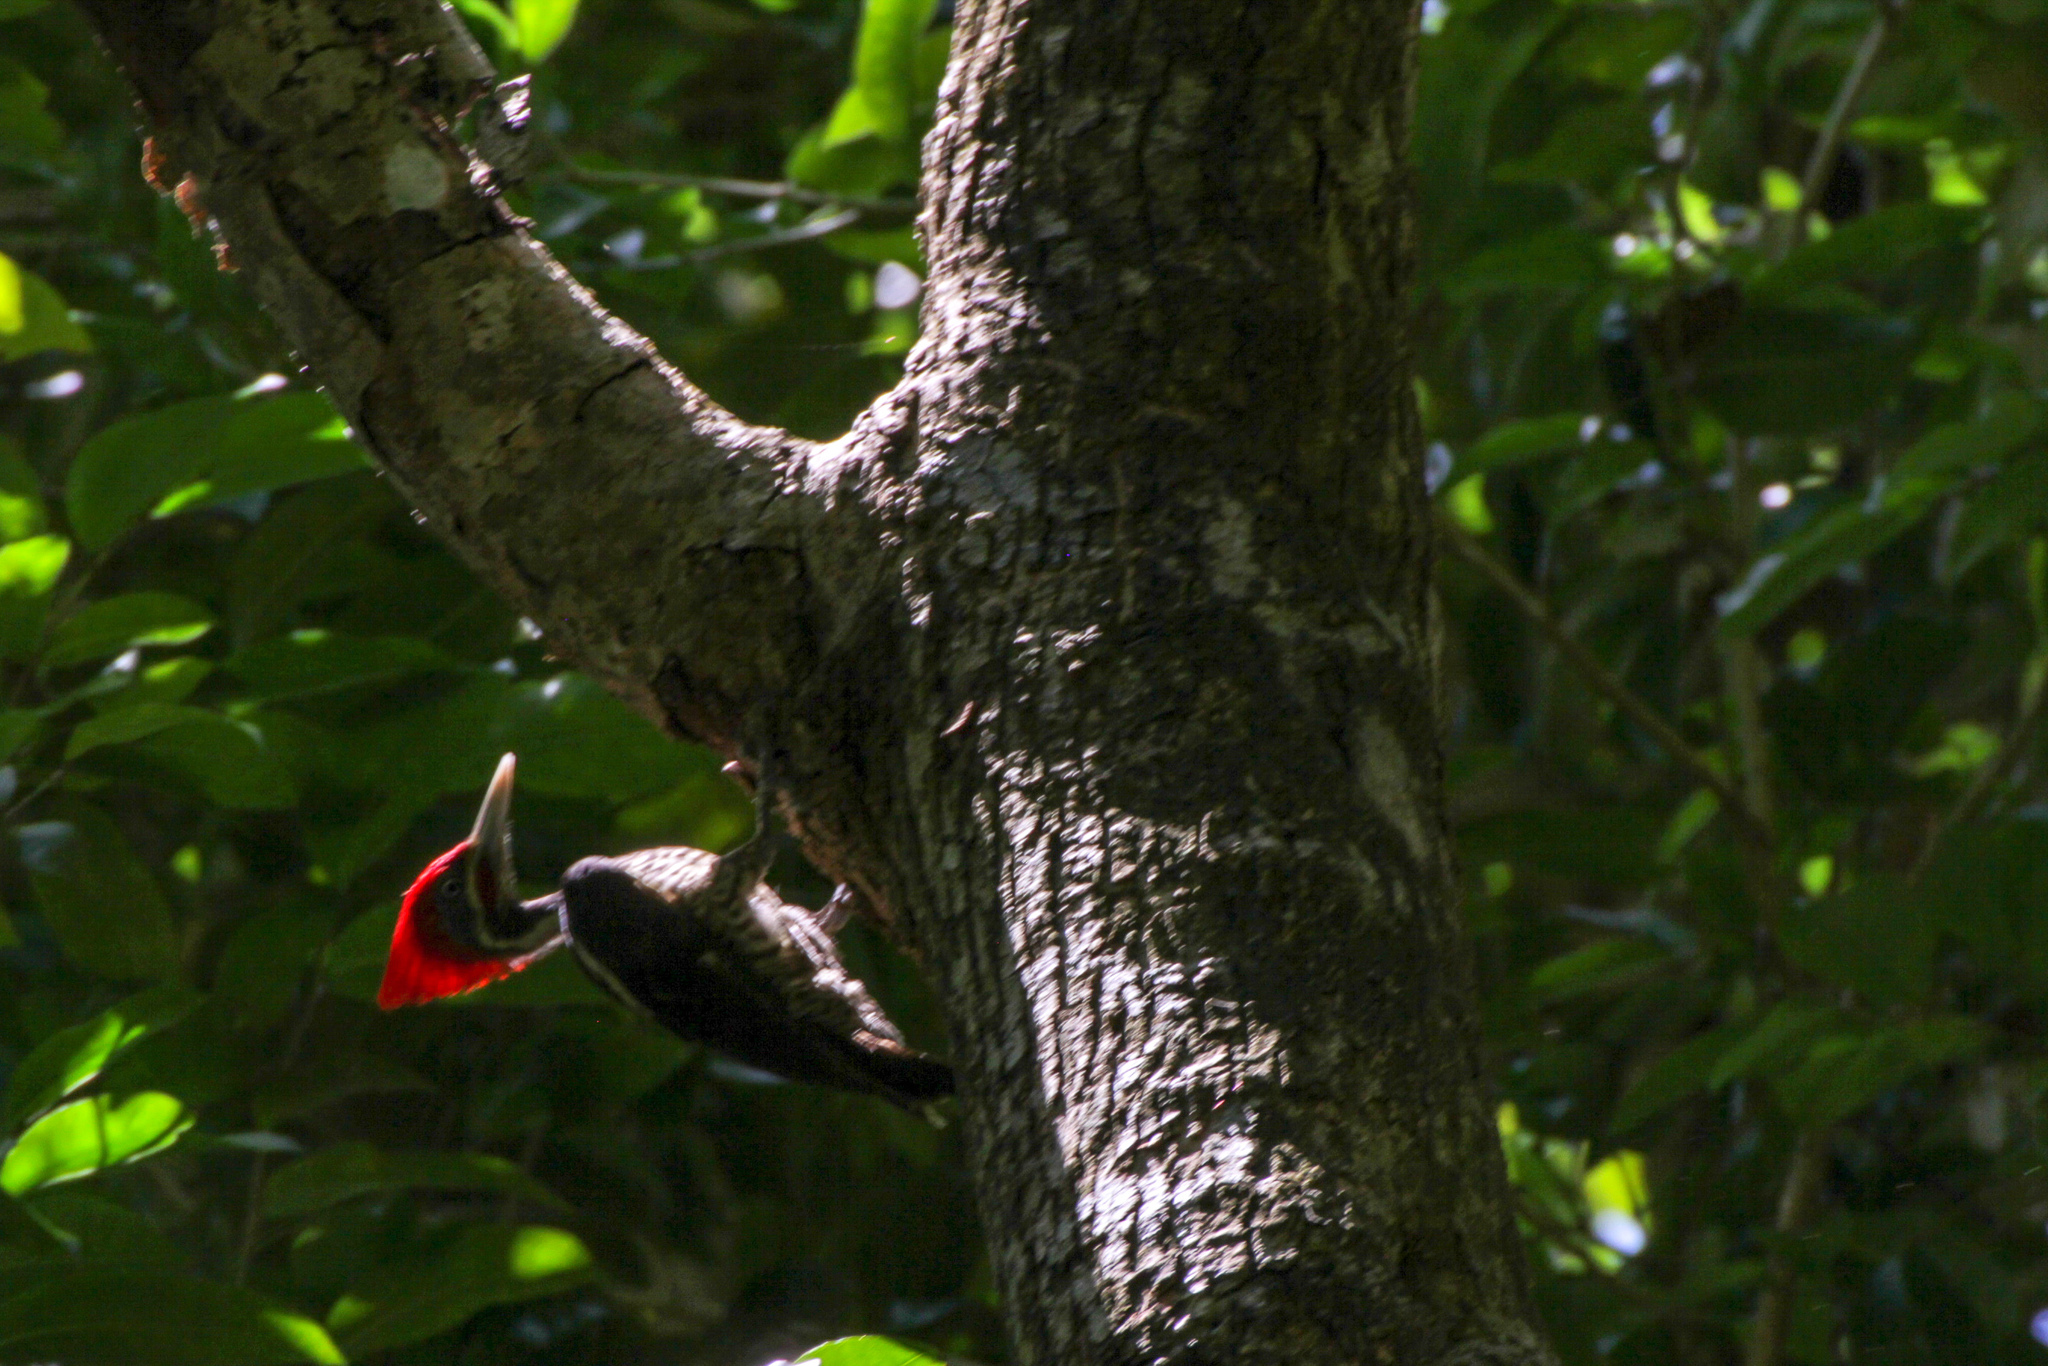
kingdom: Animalia
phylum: Chordata
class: Aves
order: Piciformes
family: Picidae
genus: Dryocopus
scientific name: Dryocopus lineatus
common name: Lineated woodpecker
